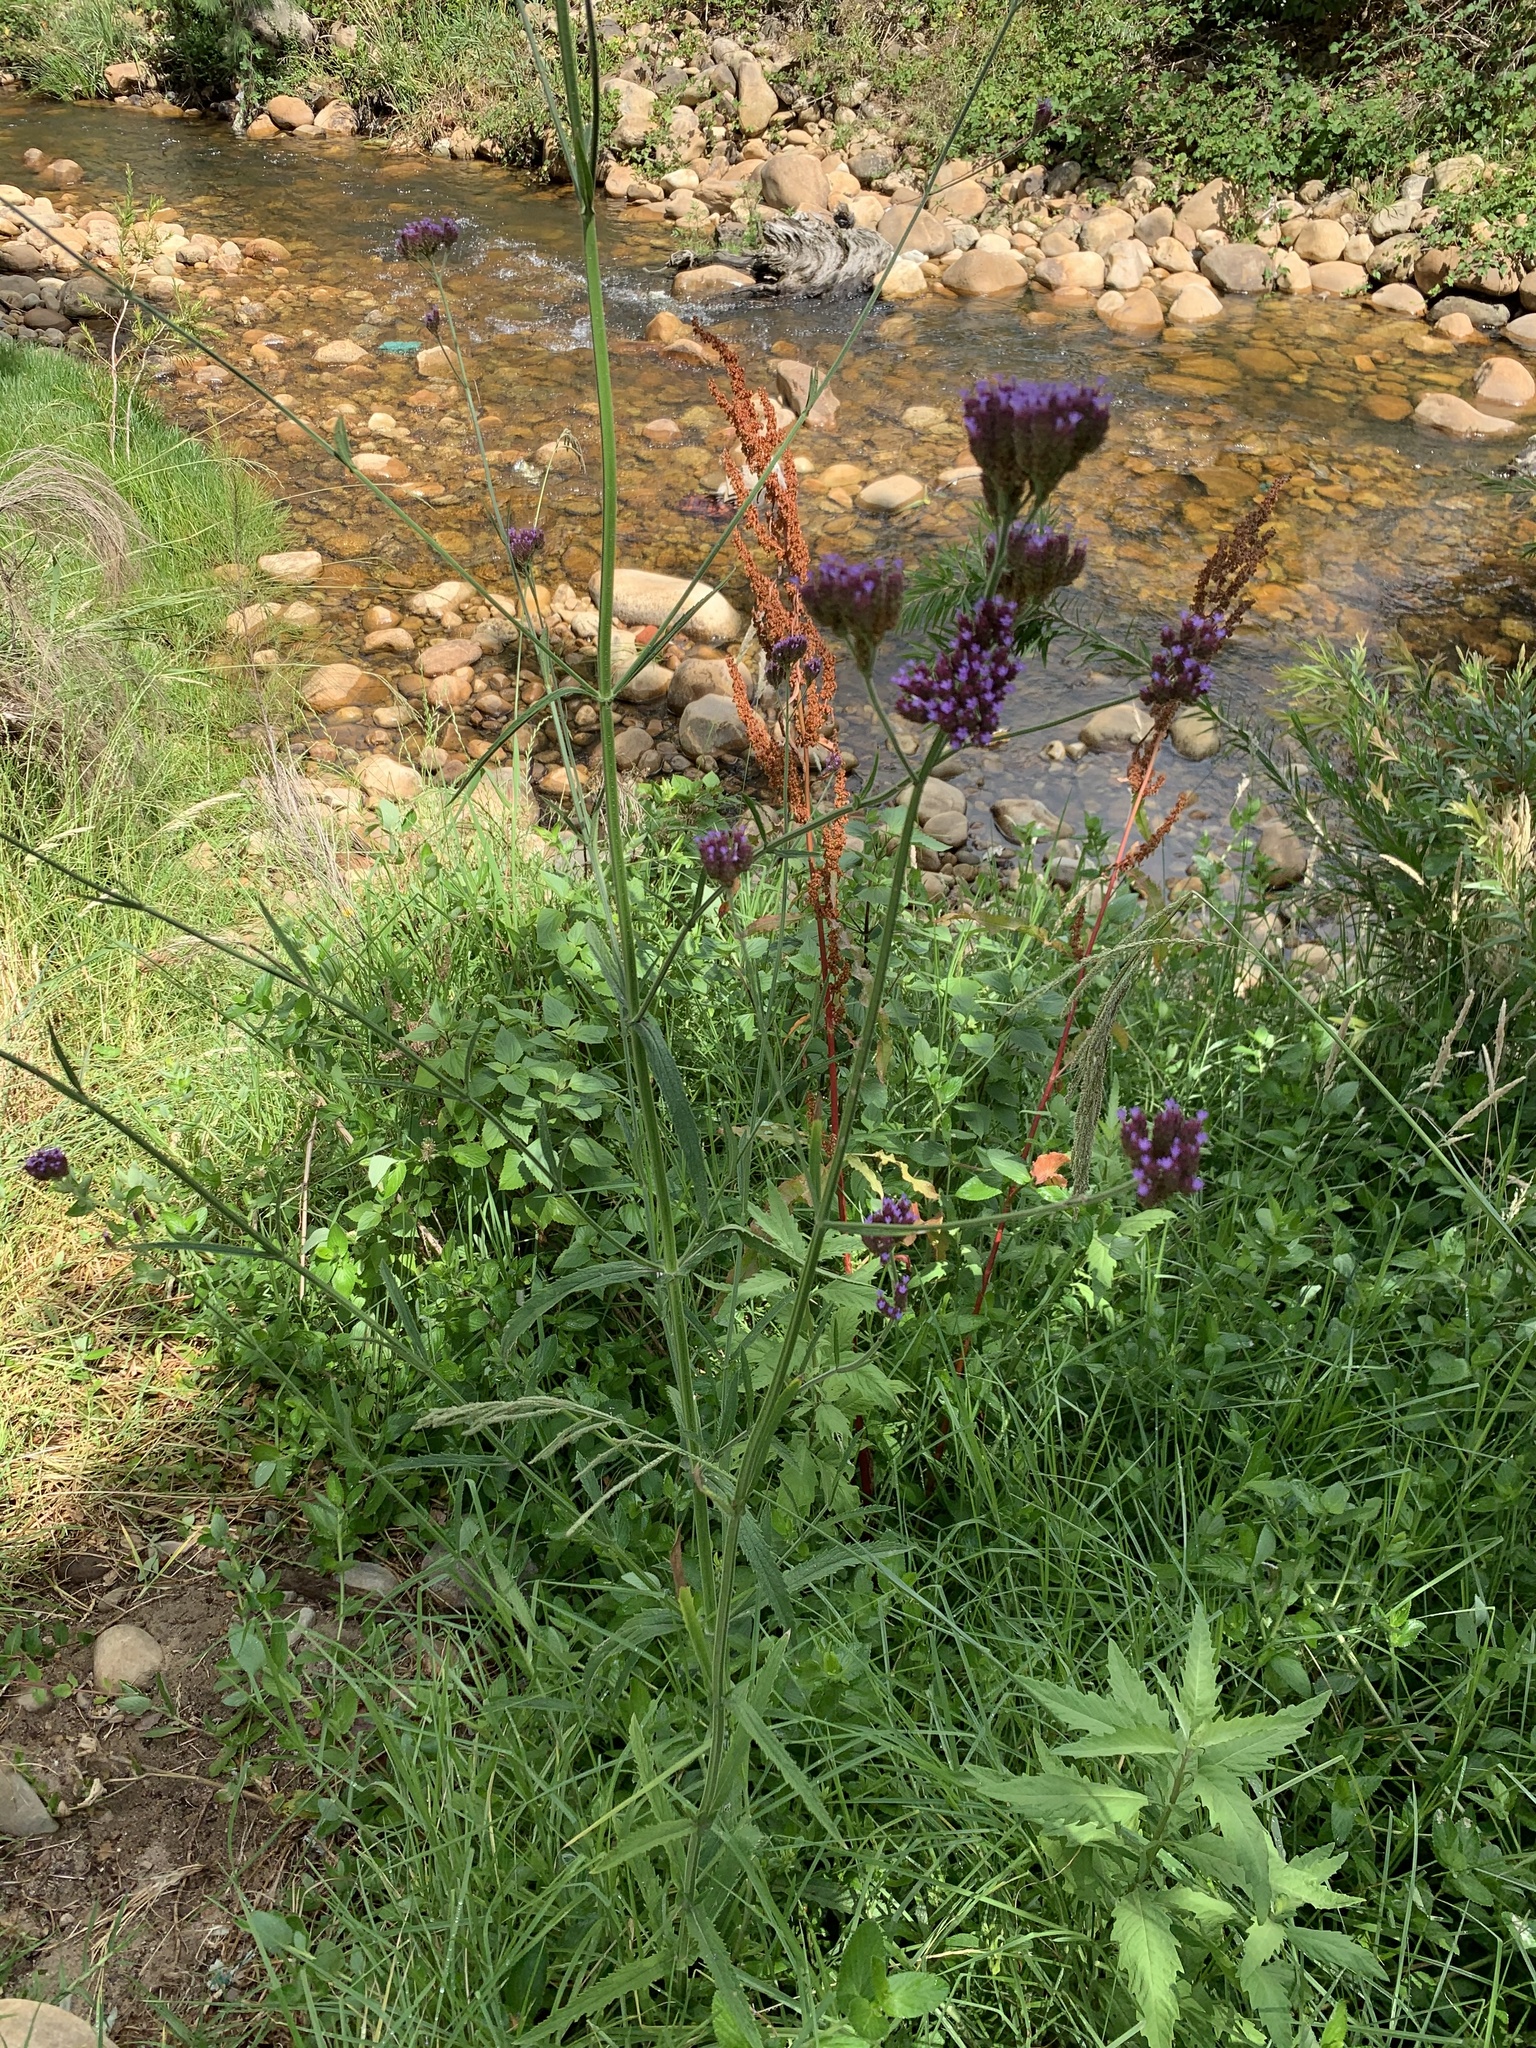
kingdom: Plantae
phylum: Tracheophyta
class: Magnoliopsida
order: Lamiales
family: Verbenaceae
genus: Verbena
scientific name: Verbena bonariensis
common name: Purpletop vervain
